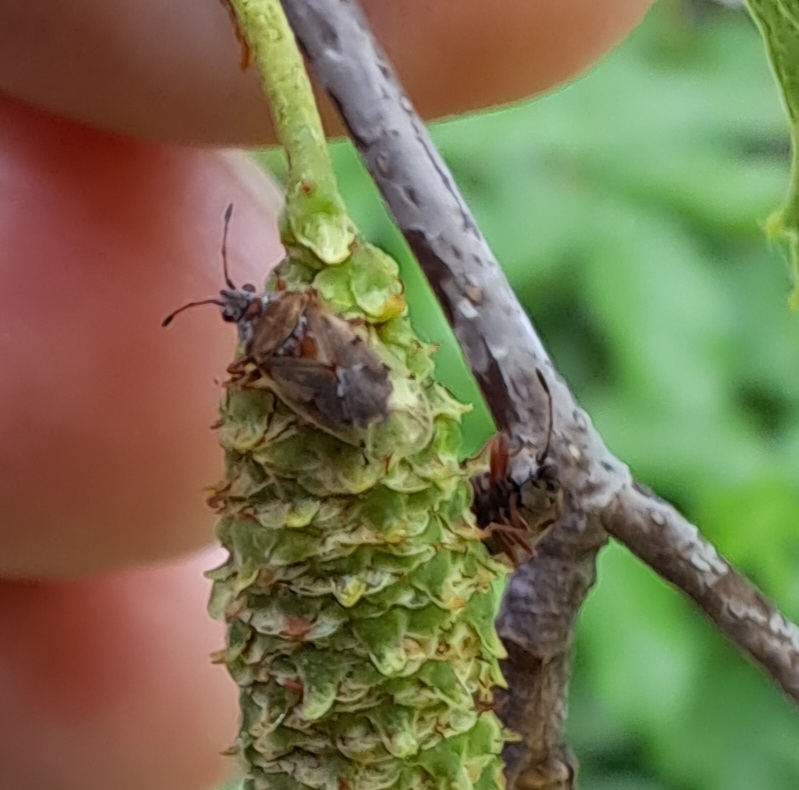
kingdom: Animalia
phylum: Arthropoda
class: Insecta
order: Hemiptera
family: Lygaeidae
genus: Kleidocerys
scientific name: Kleidocerys resedae
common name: Birch catkin bug
